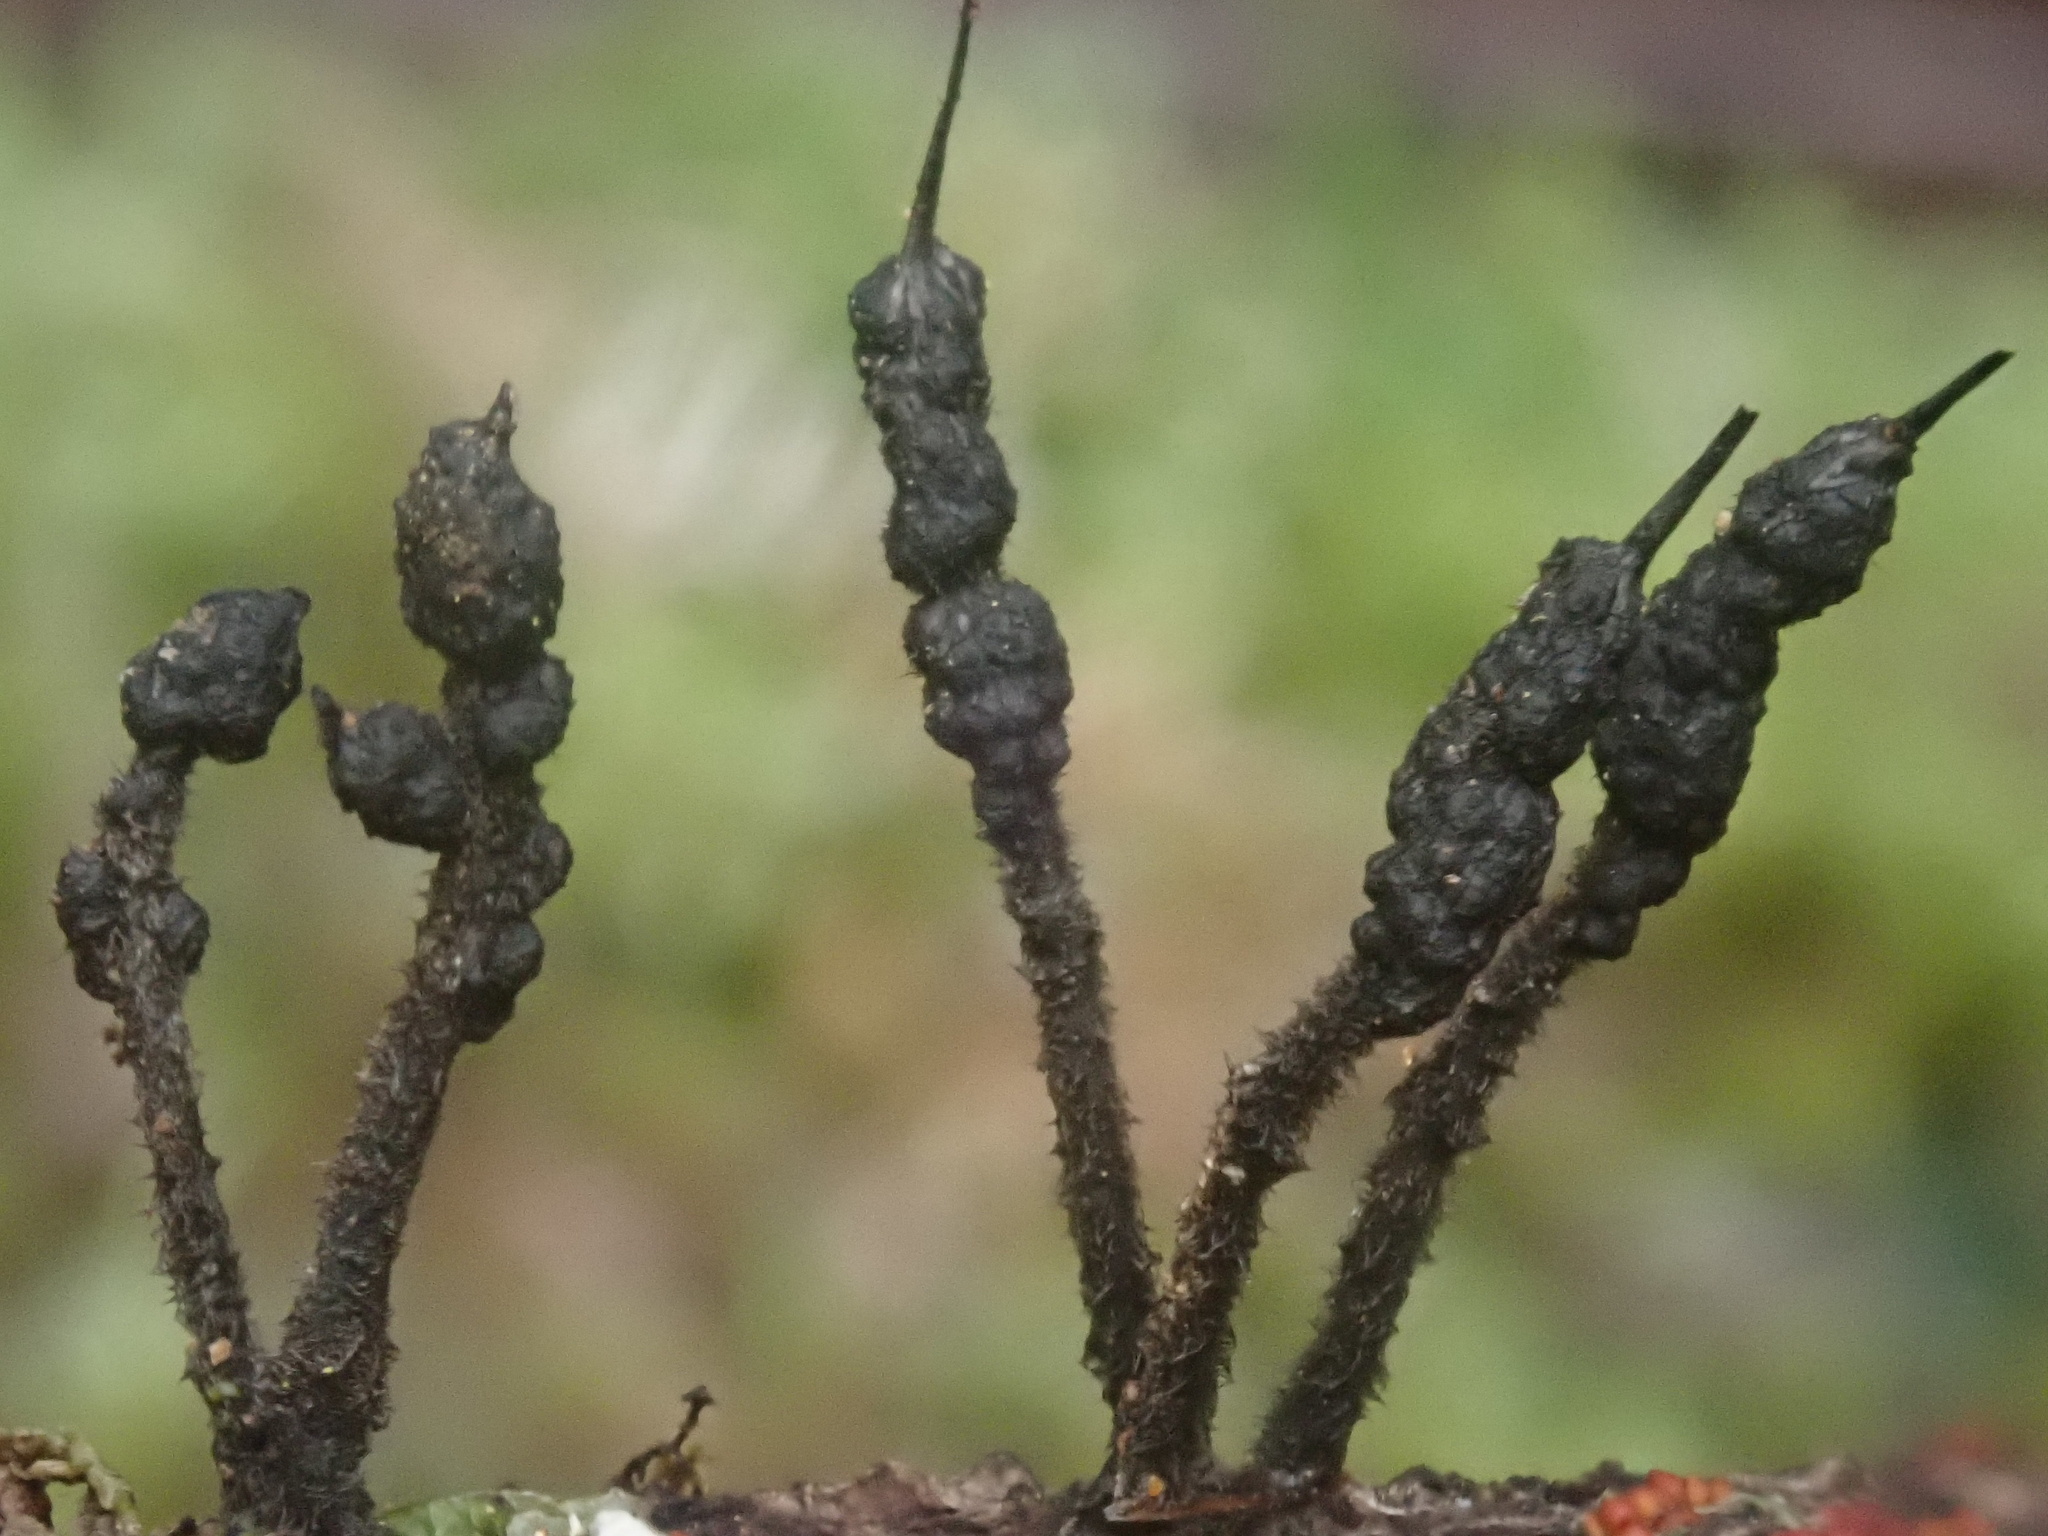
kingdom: Fungi
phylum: Ascomycota
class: Sordariomycetes
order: Xylariales
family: Xylariaceae
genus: Xylaria
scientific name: Xylaria apiculata
